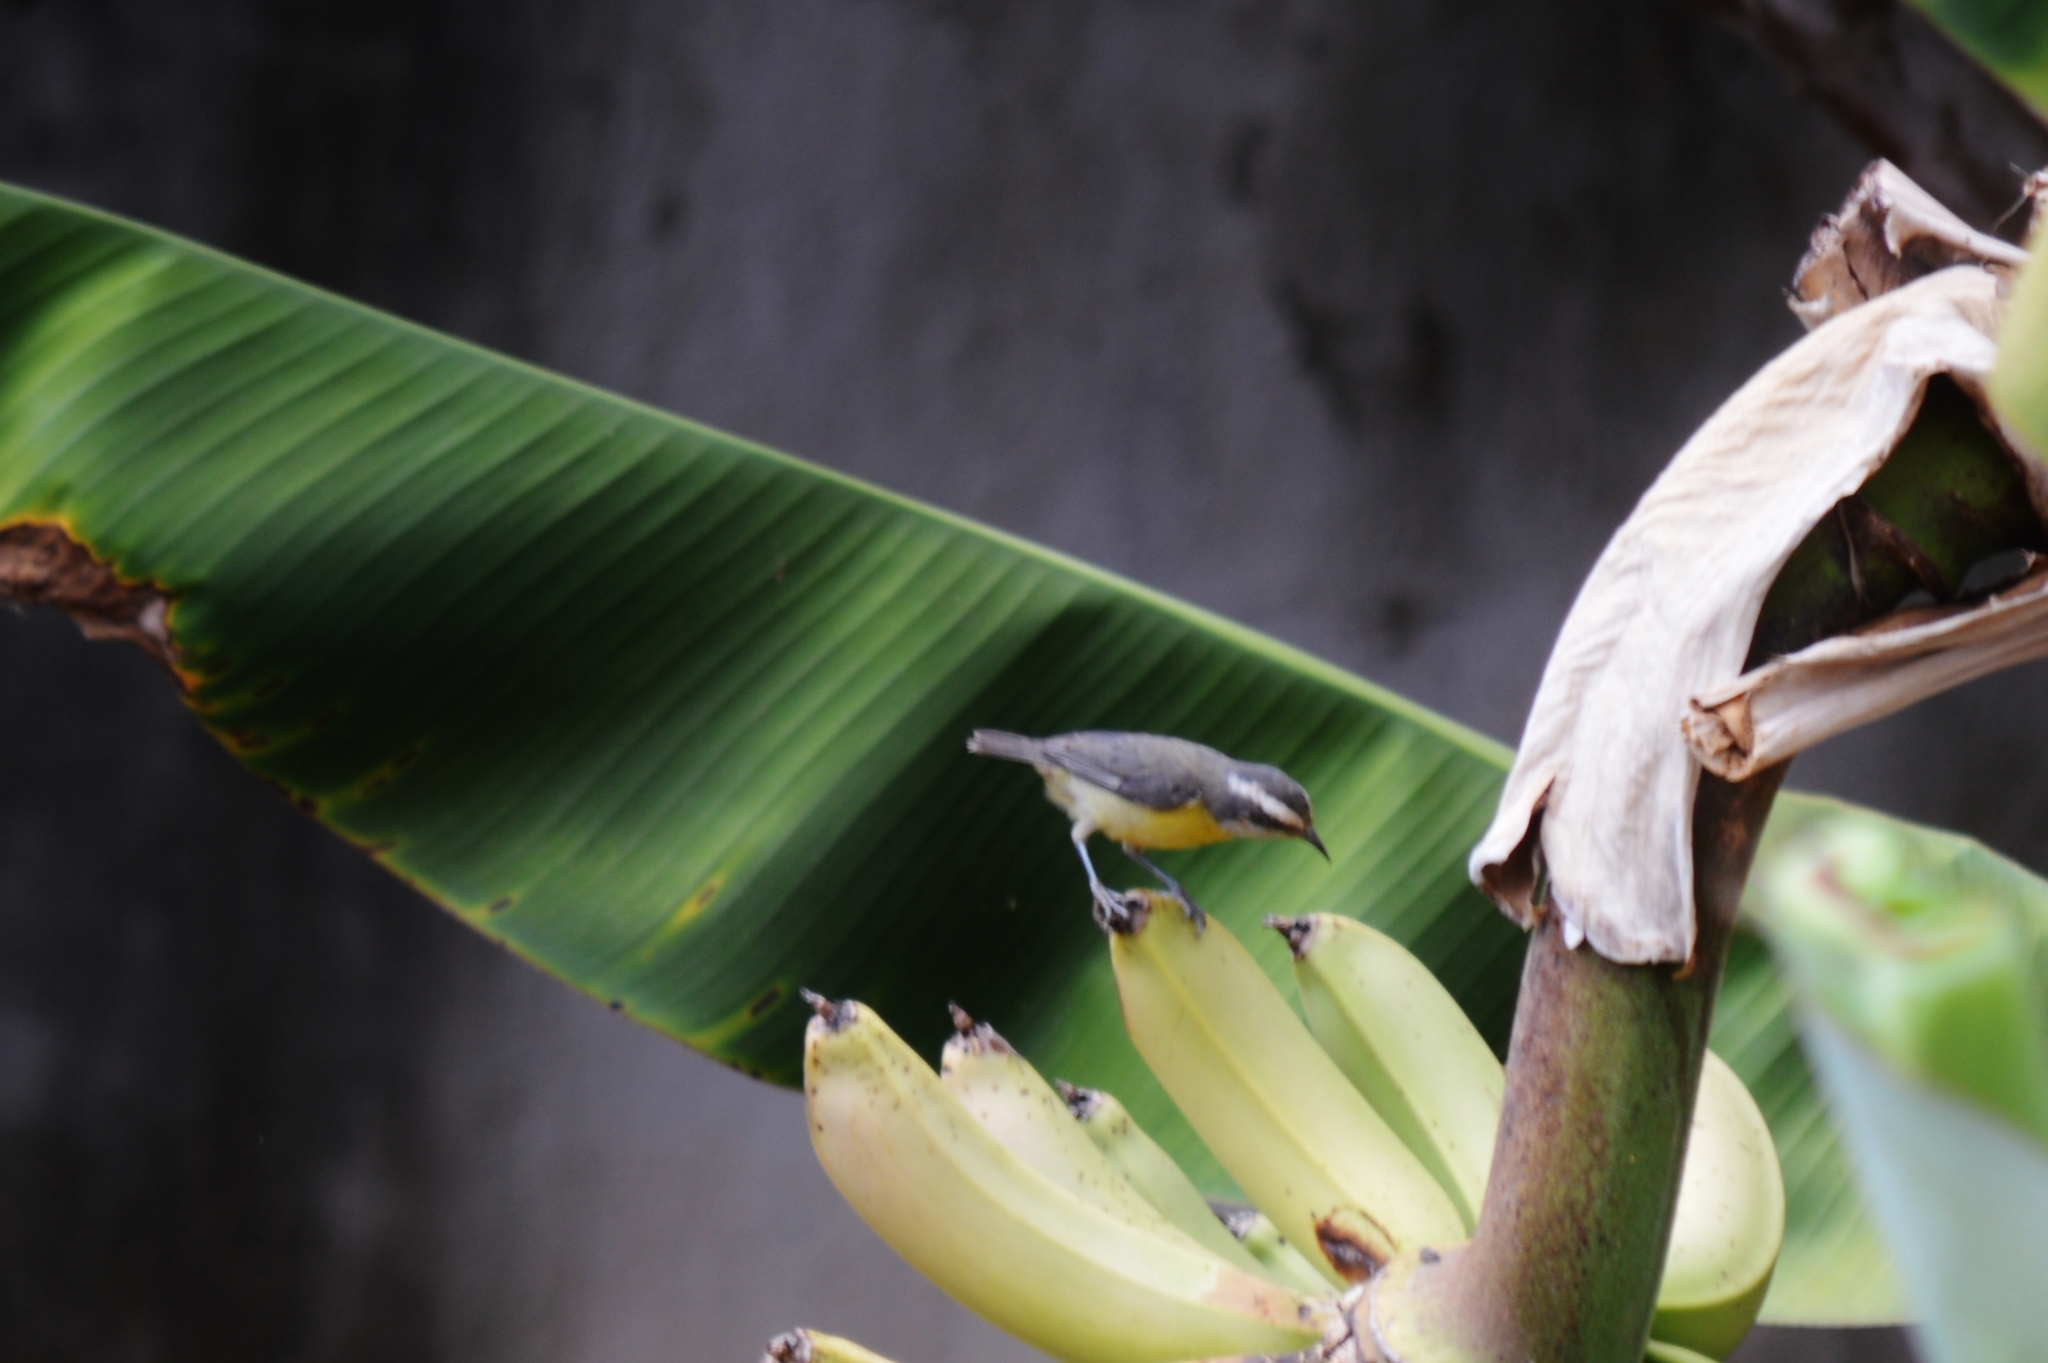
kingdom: Animalia
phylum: Chordata
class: Aves
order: Passeriformes
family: Thraupidae
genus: Coereba
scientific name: Coereba flaveola
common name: Bananaquit
